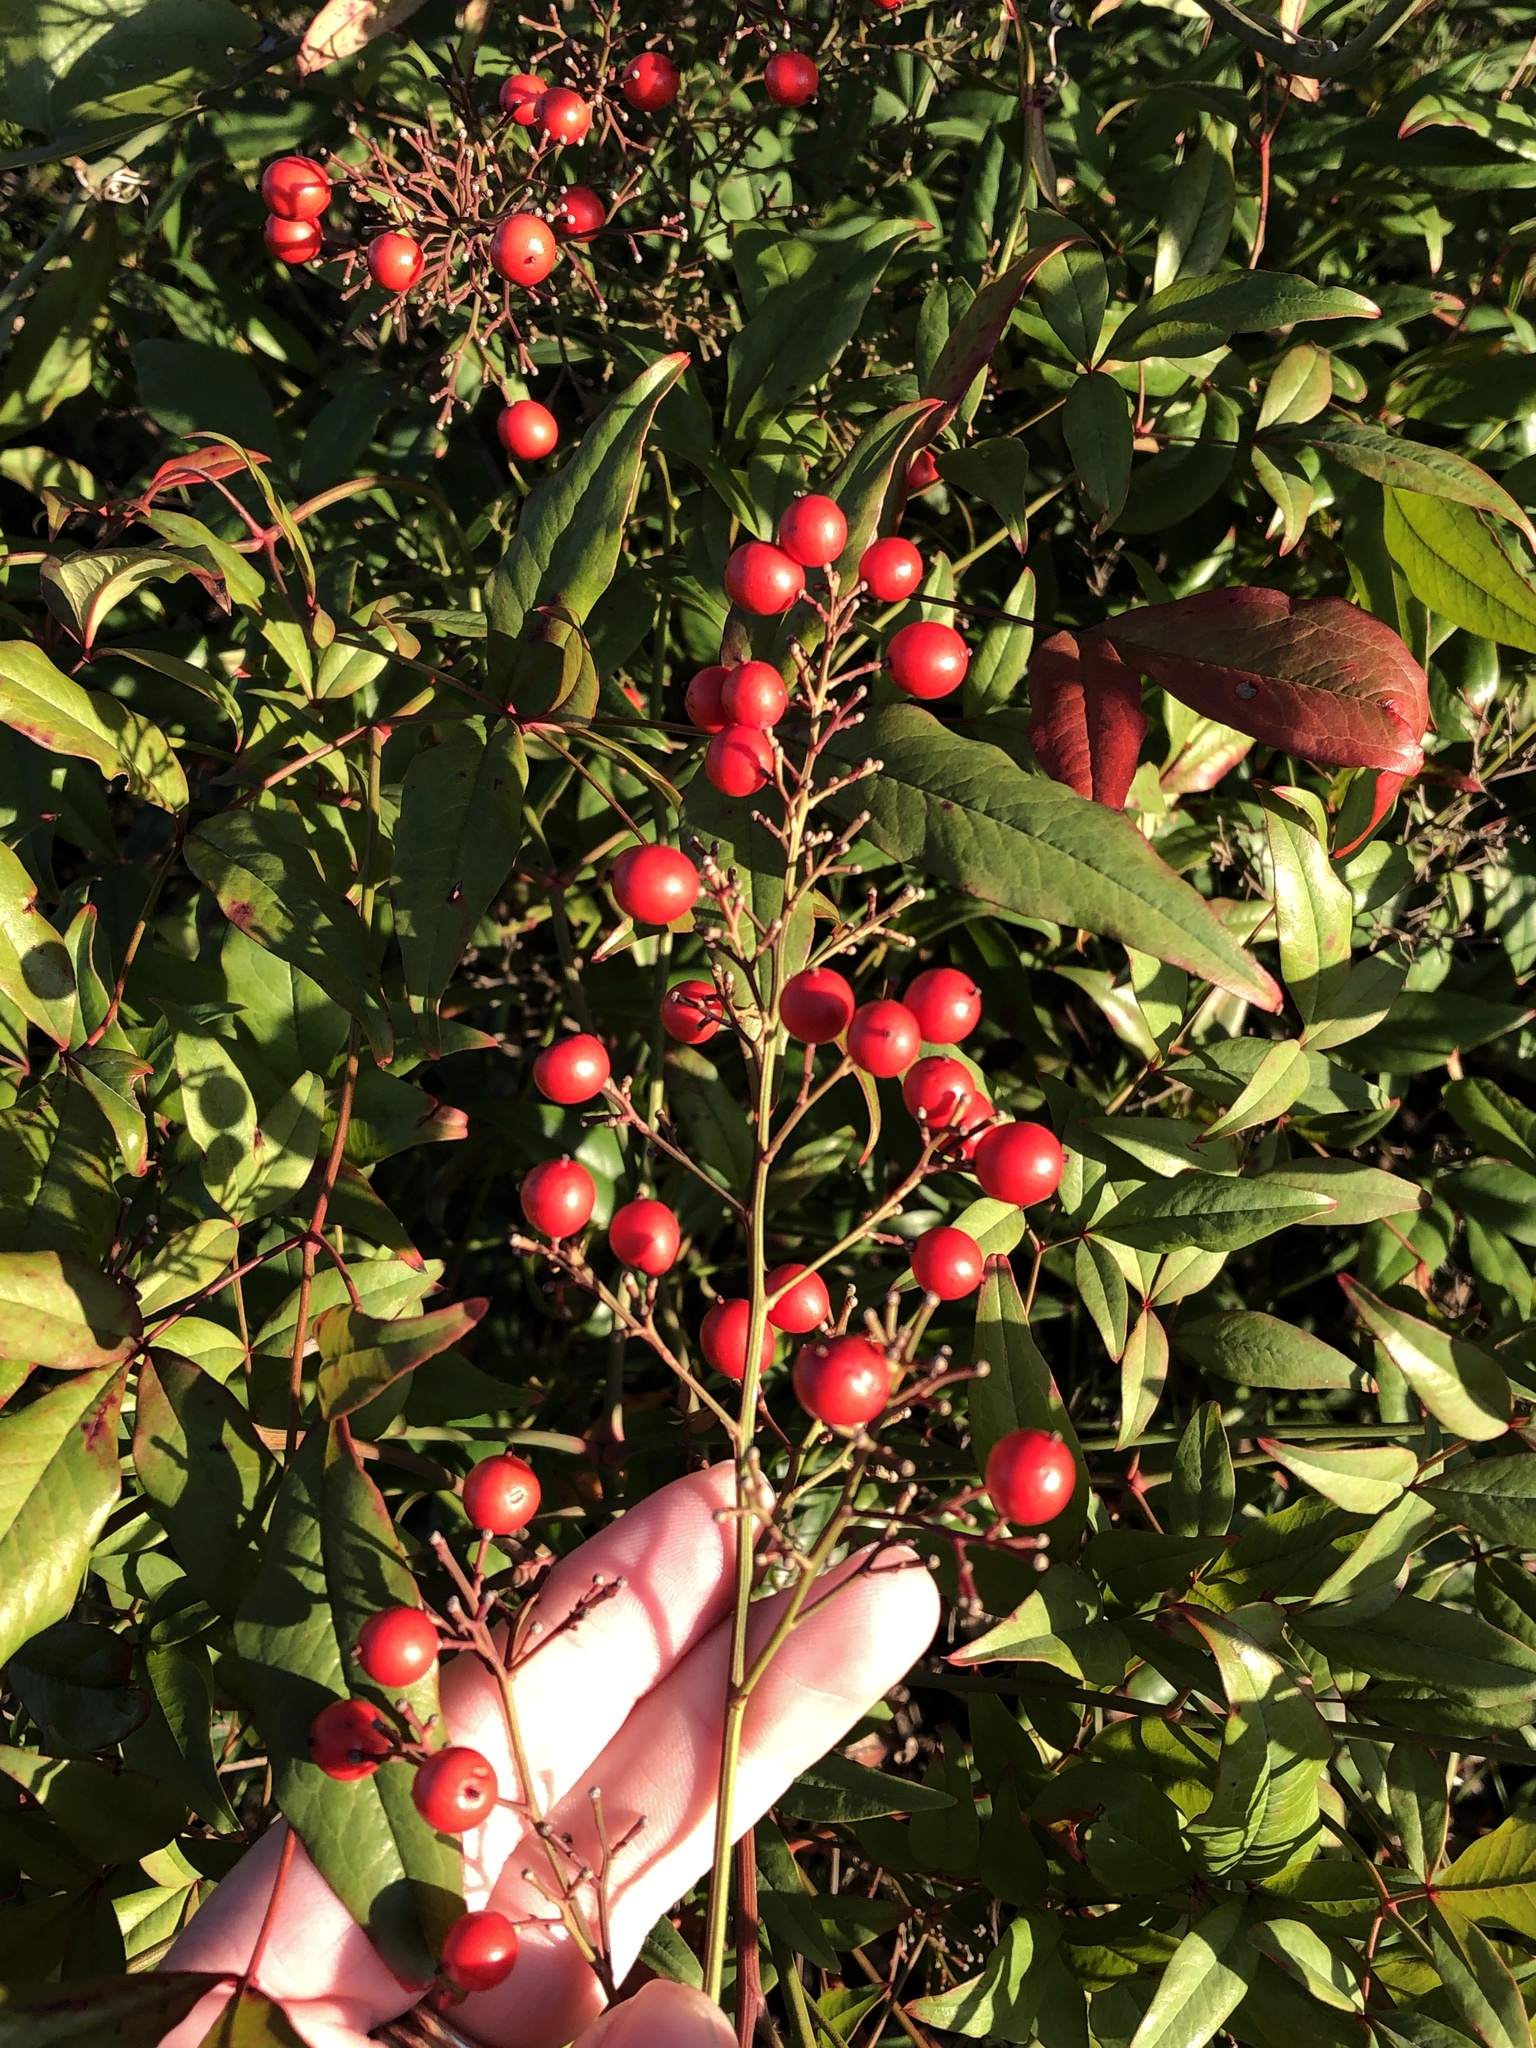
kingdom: Plantae
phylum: Tracheophyta
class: Magnoliopsida
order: Ranunculales
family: Berberidaceae
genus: Nandina
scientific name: Nandina domestica
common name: Sacred bamboo
